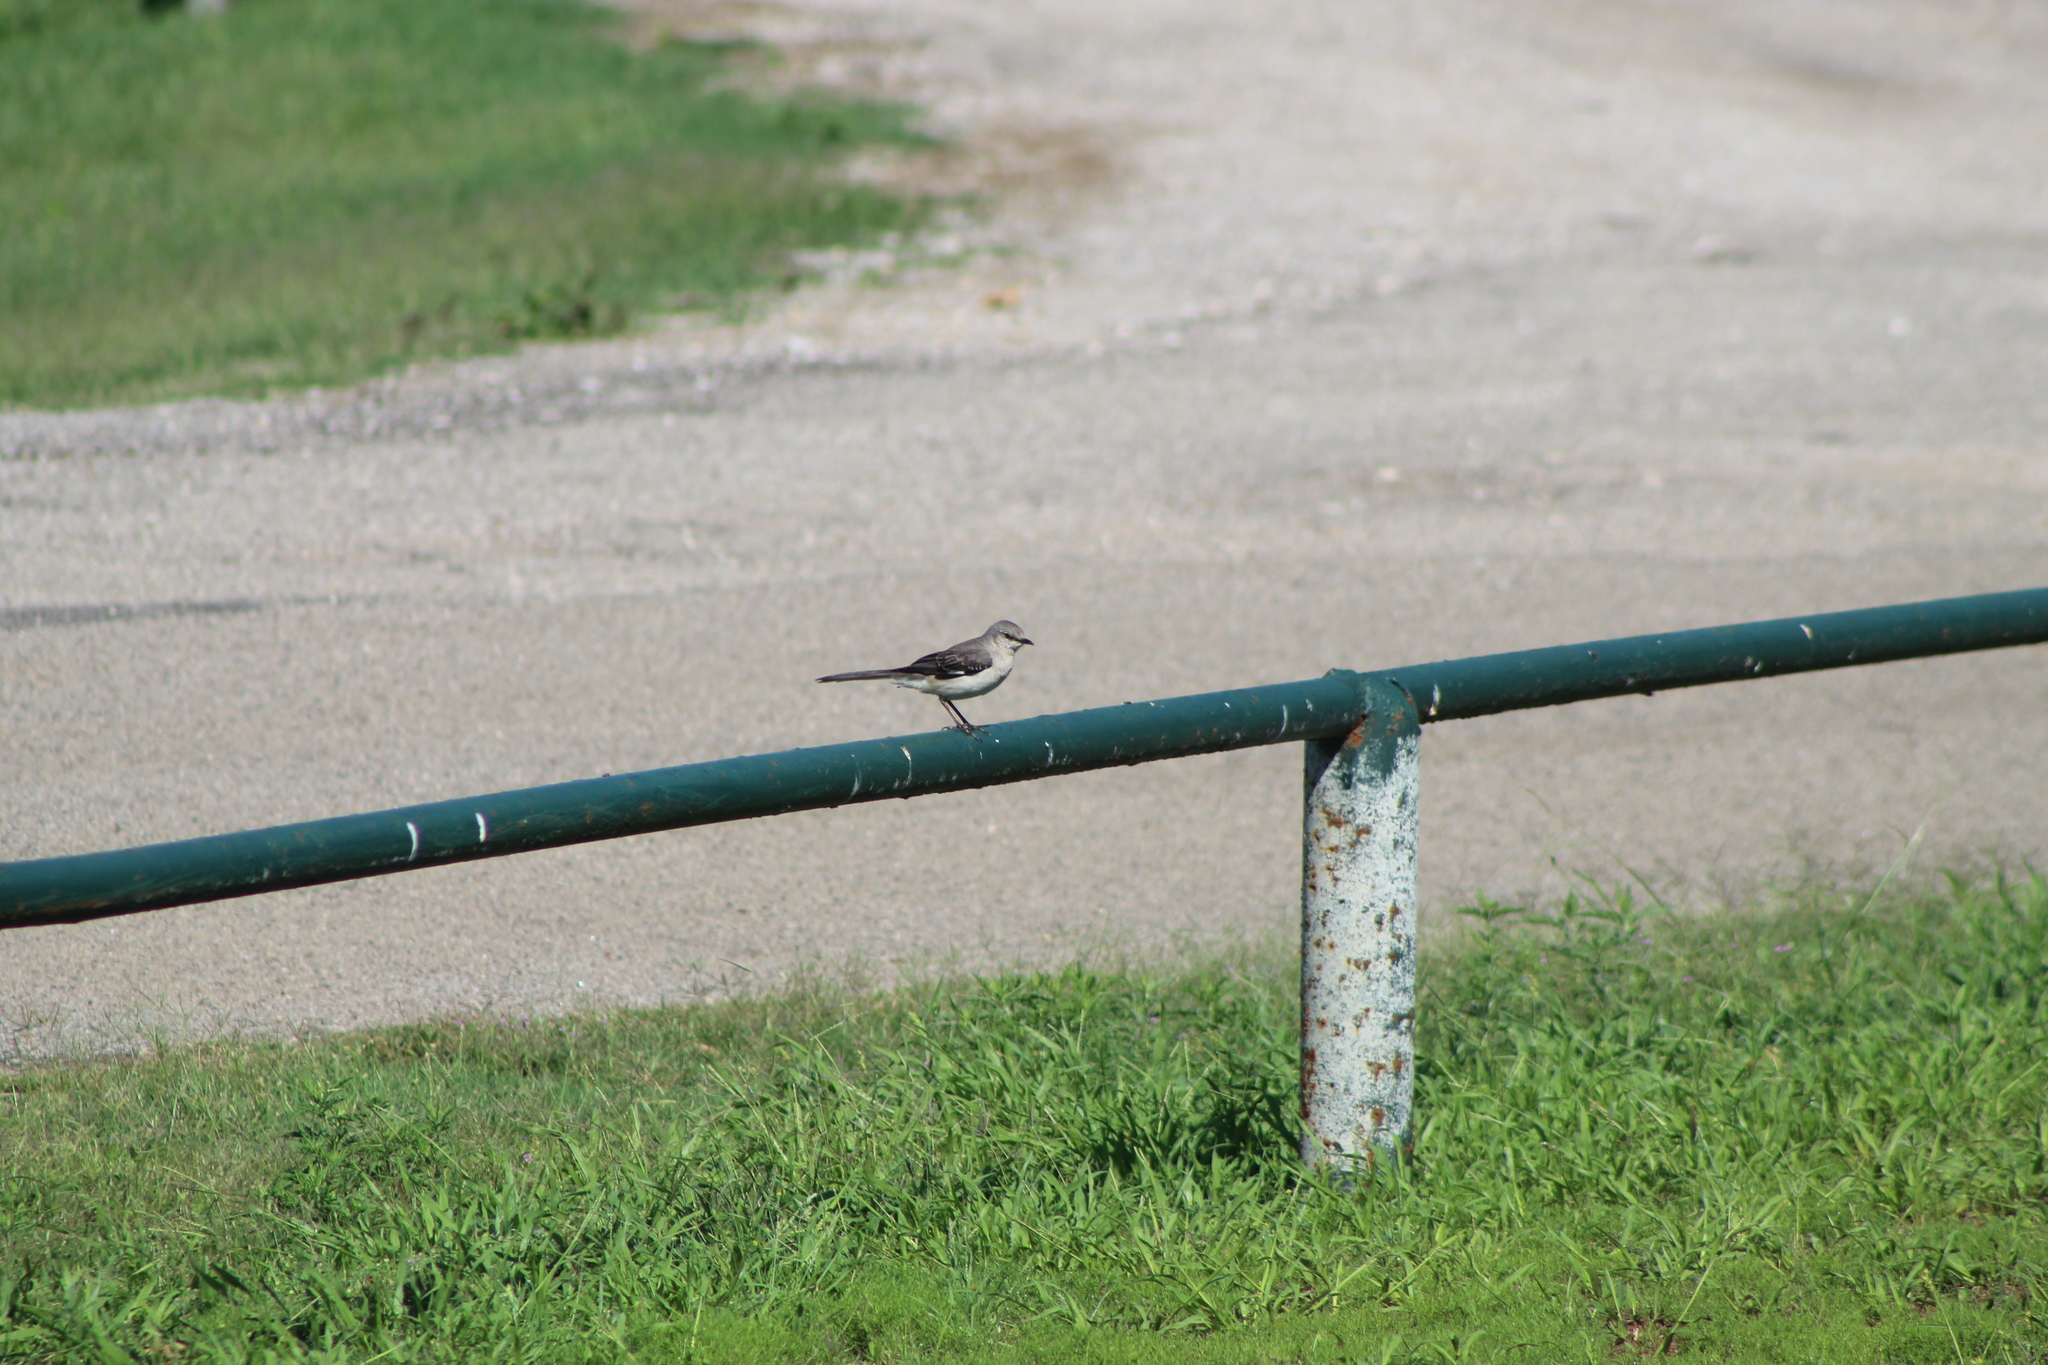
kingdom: Animalia
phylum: Chordata
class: Aves
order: Passeriformes
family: Mimidae
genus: Mimus
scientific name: Mimus polyglottos
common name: Northern mockingbird
